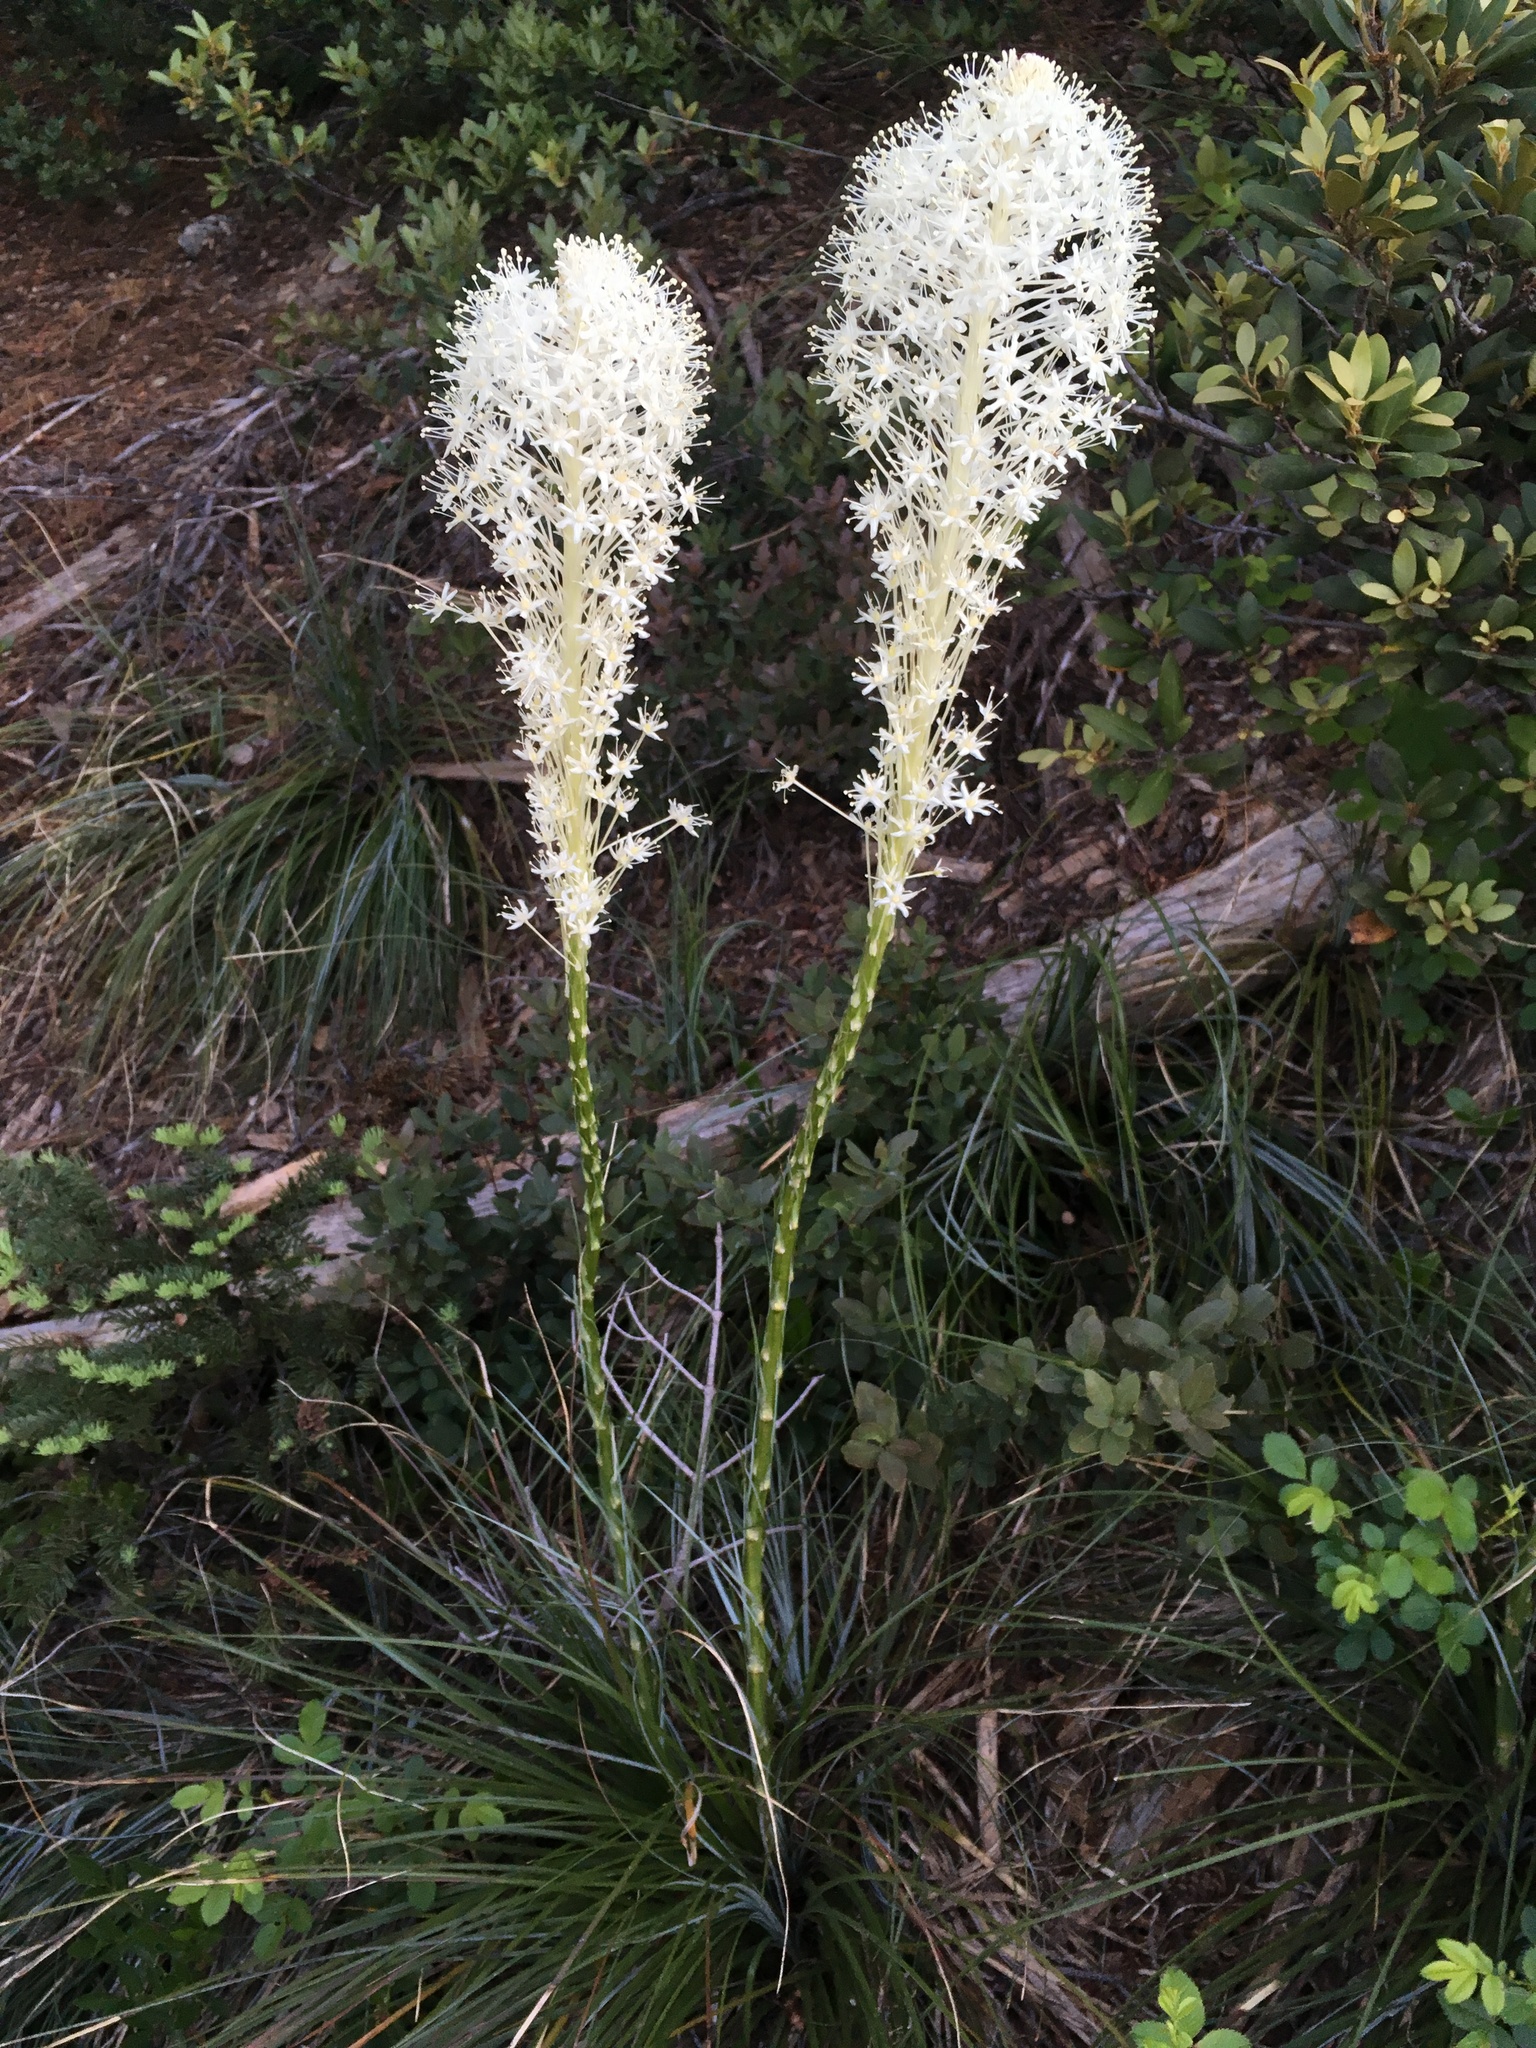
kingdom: Plantae
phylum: Tracheophyta
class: Liliopsida
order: Liliales
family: Melanthiaceae
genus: Xerophyllum
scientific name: Xerophyllum tenax
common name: Bear-grass
